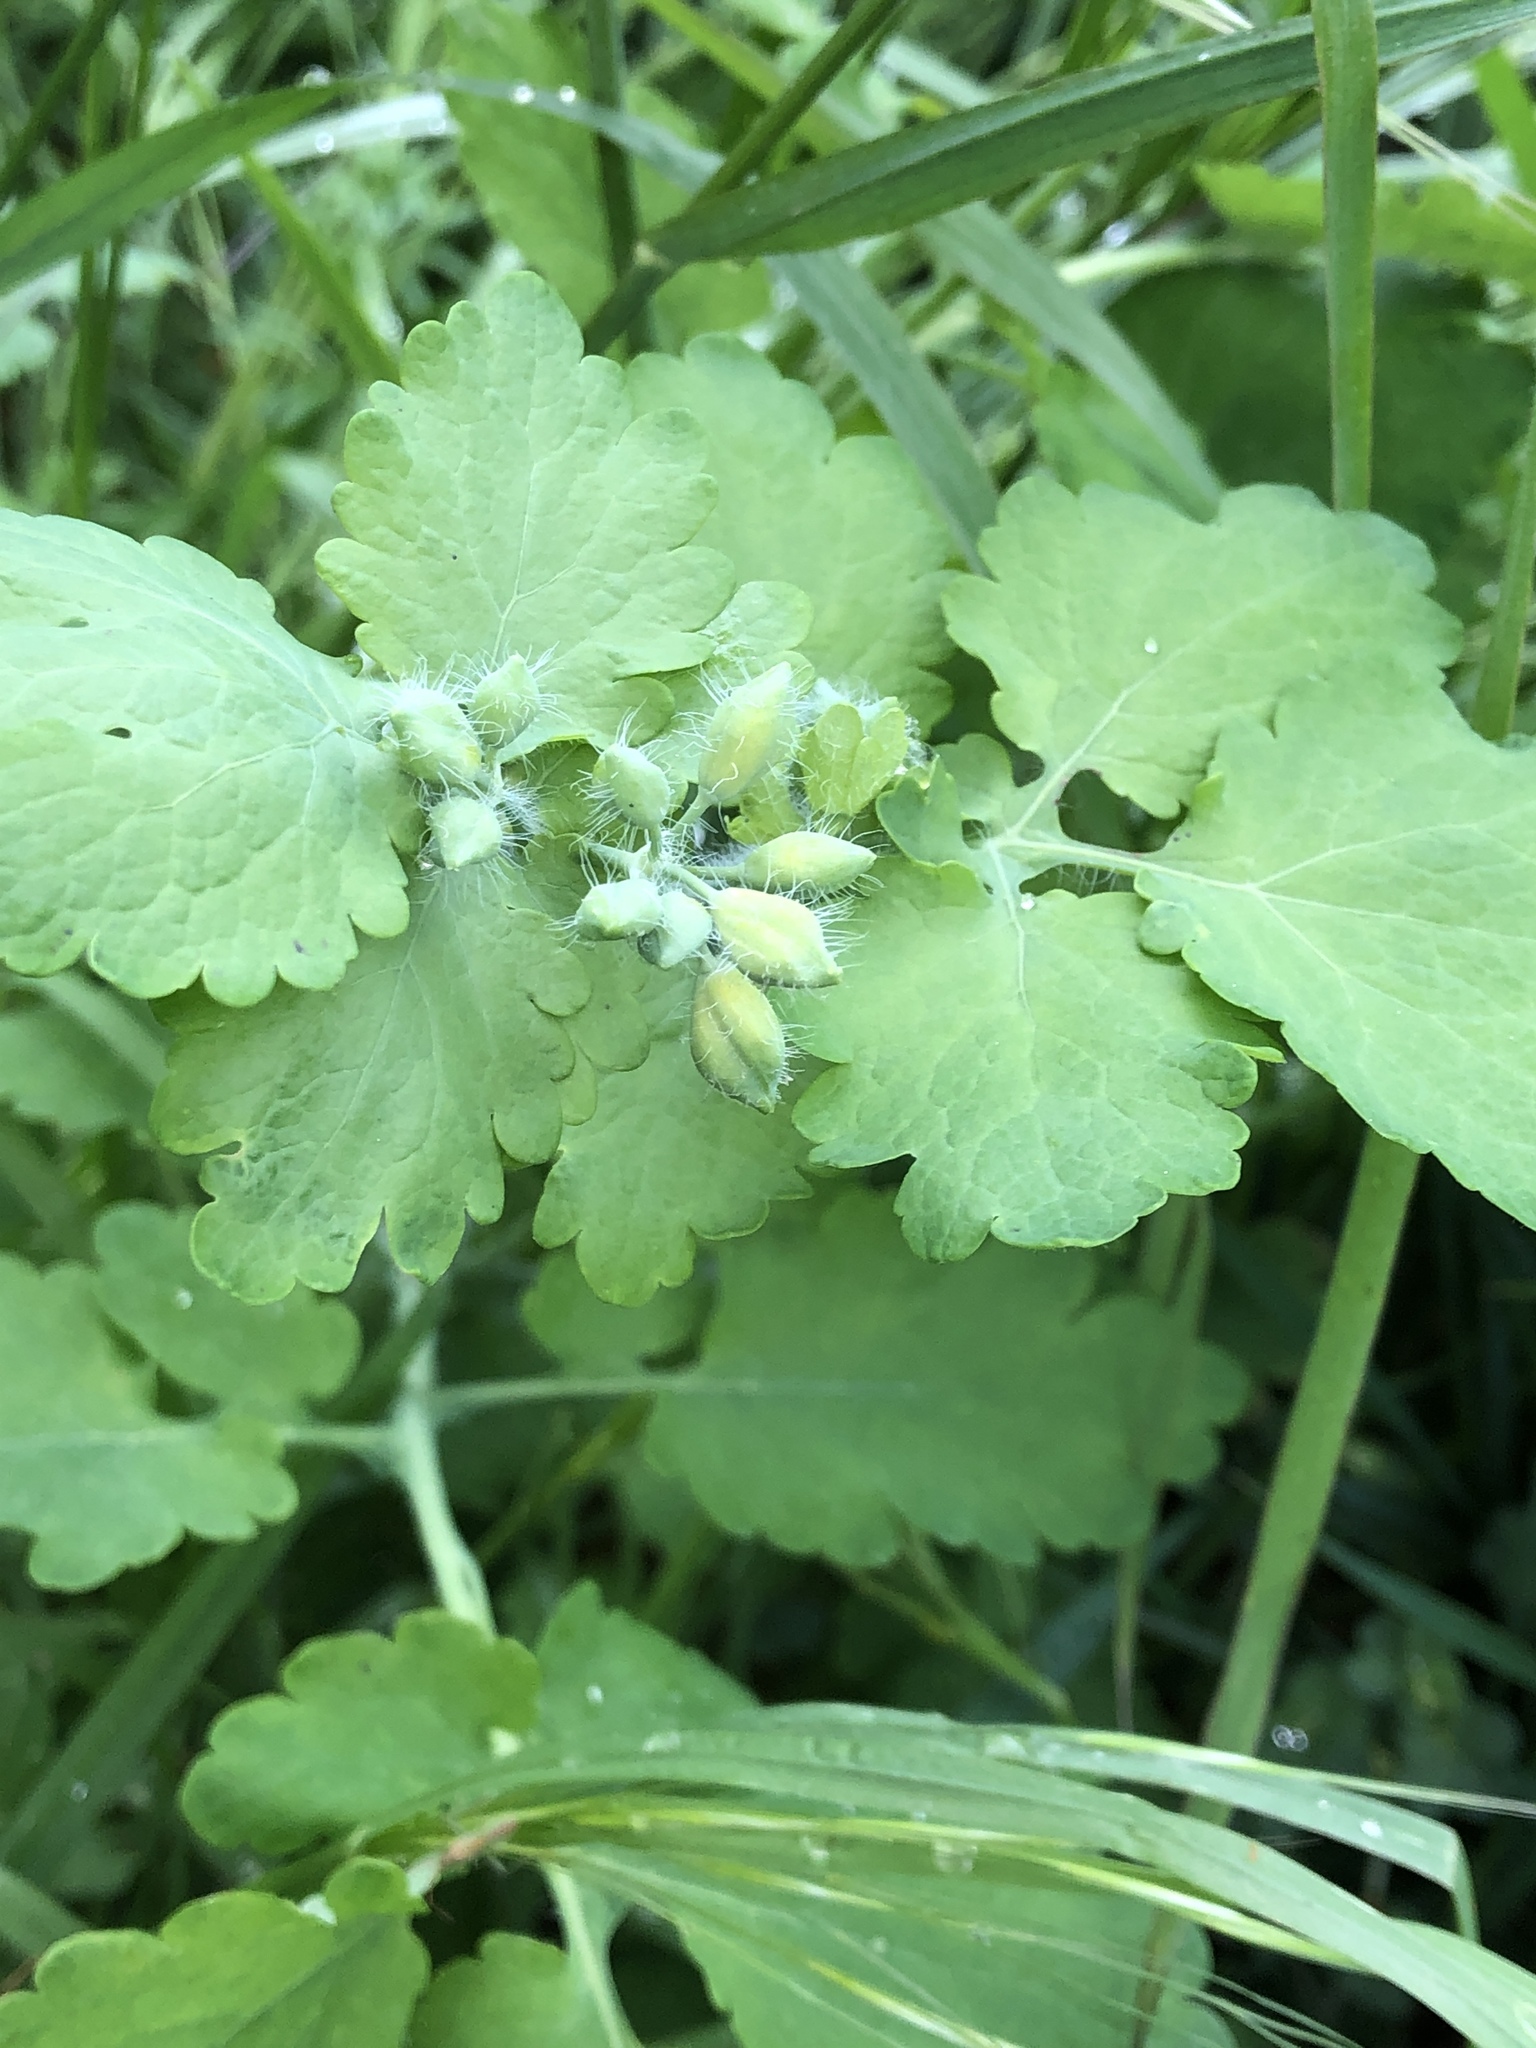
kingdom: Plantae
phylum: Tracheophyta
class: Magnoliopsida
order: Ranunculales
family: Papaveraceae
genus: Chelidonium
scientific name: Chelidonium majus
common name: Greater celandine
